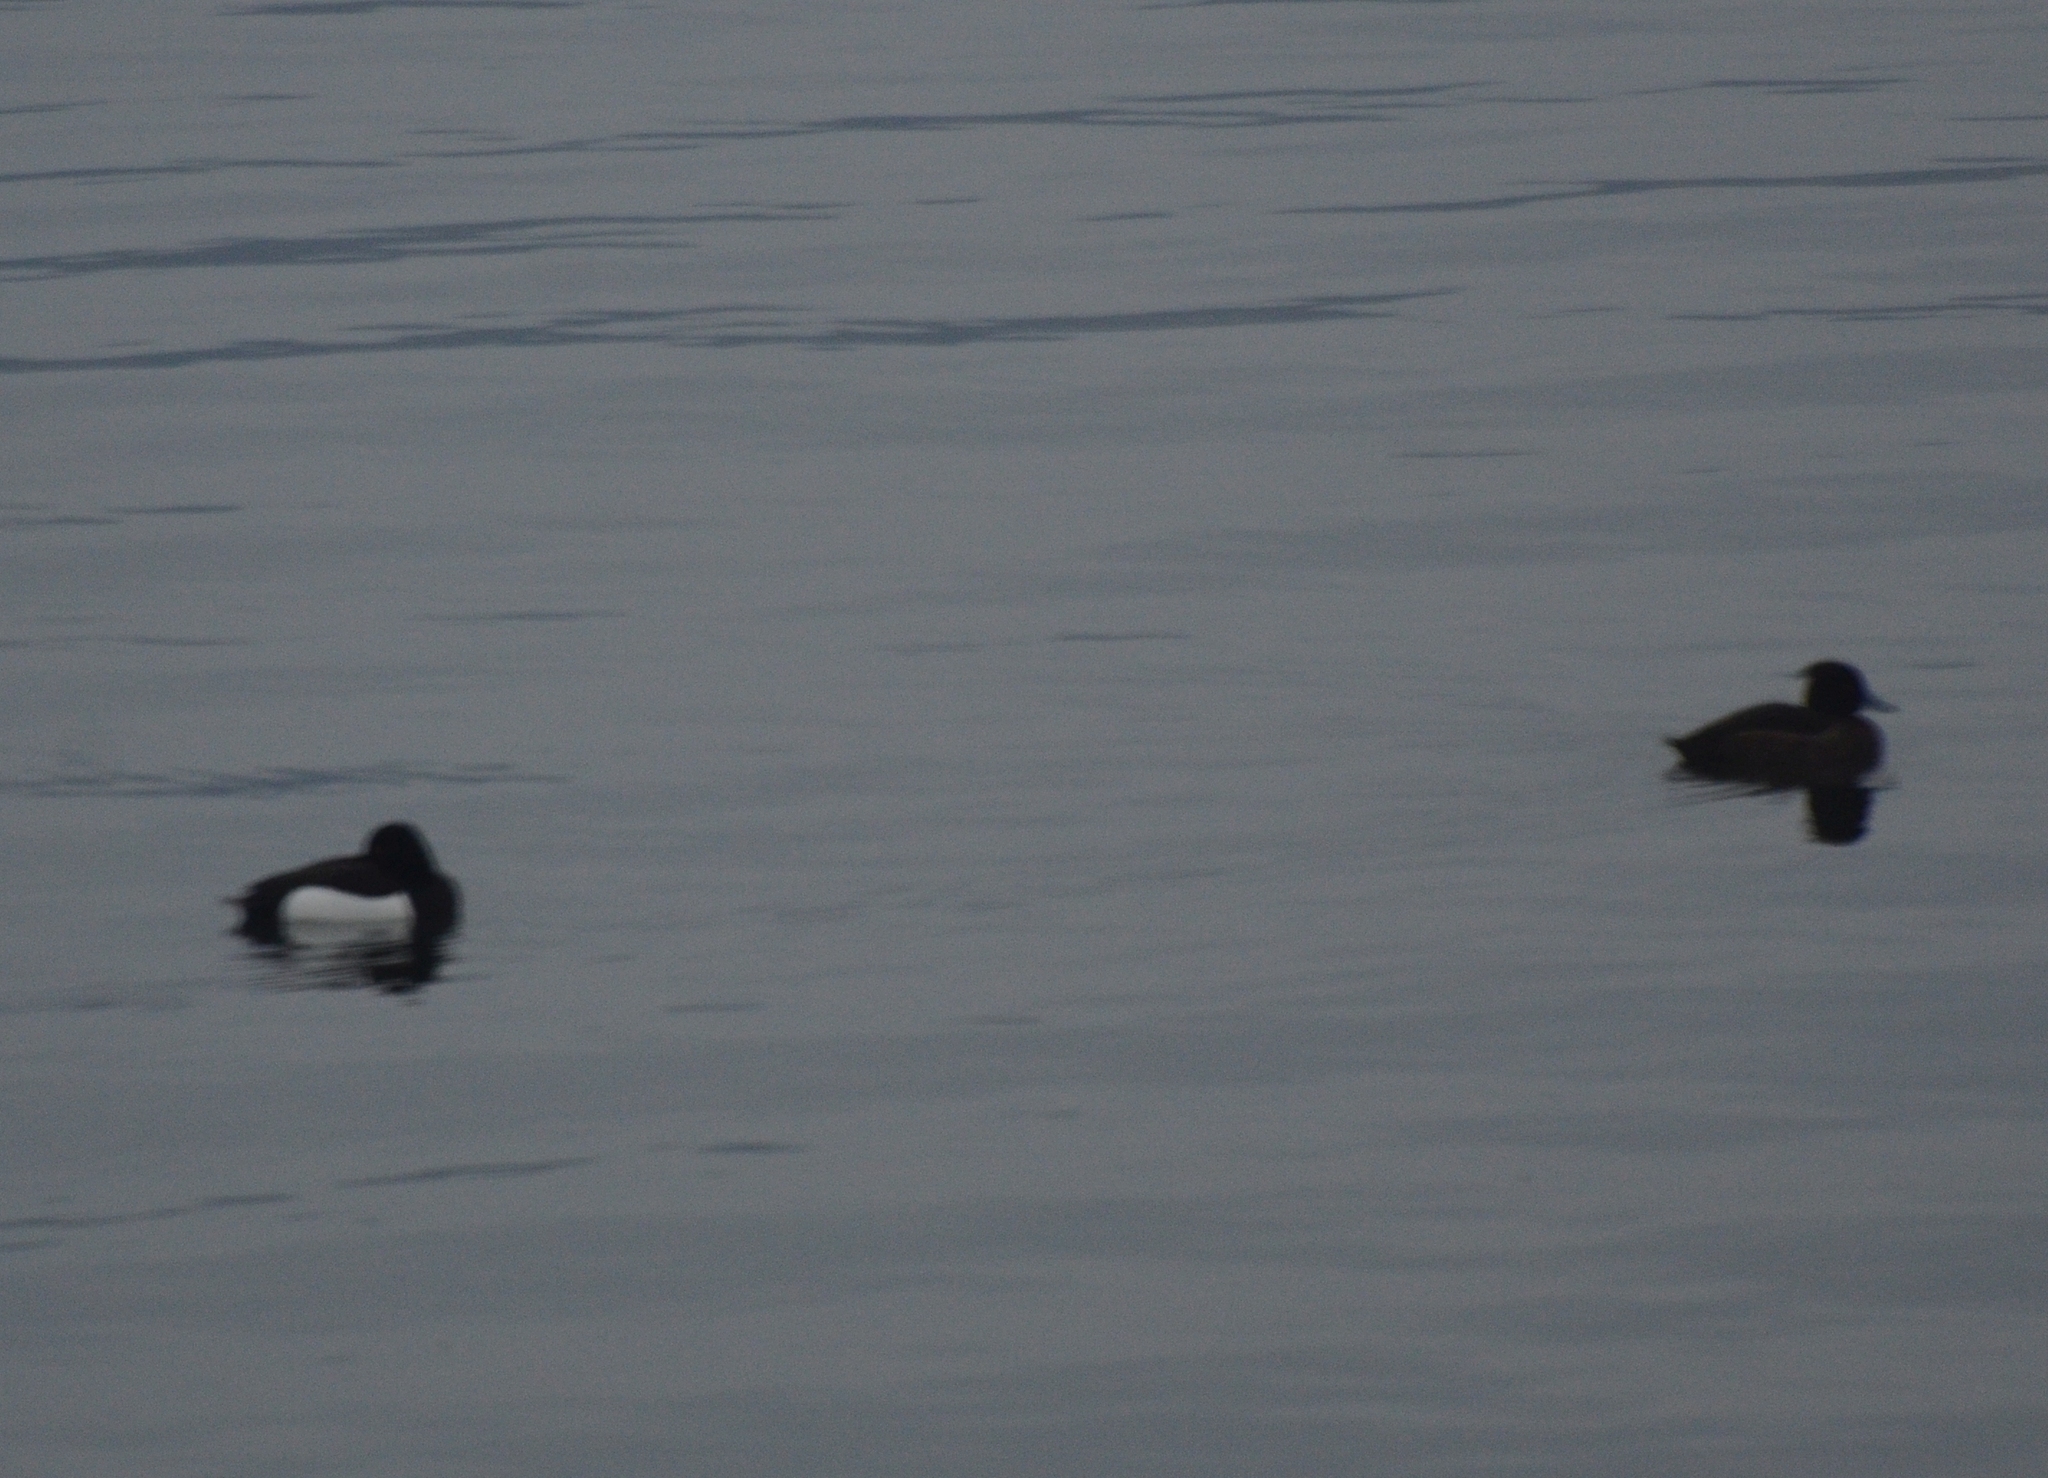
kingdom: Animalia
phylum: Chordata
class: Aves
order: Anseriformes
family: Anatidae
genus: Aythya
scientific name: Aythya fuligula
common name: Tufted duck
